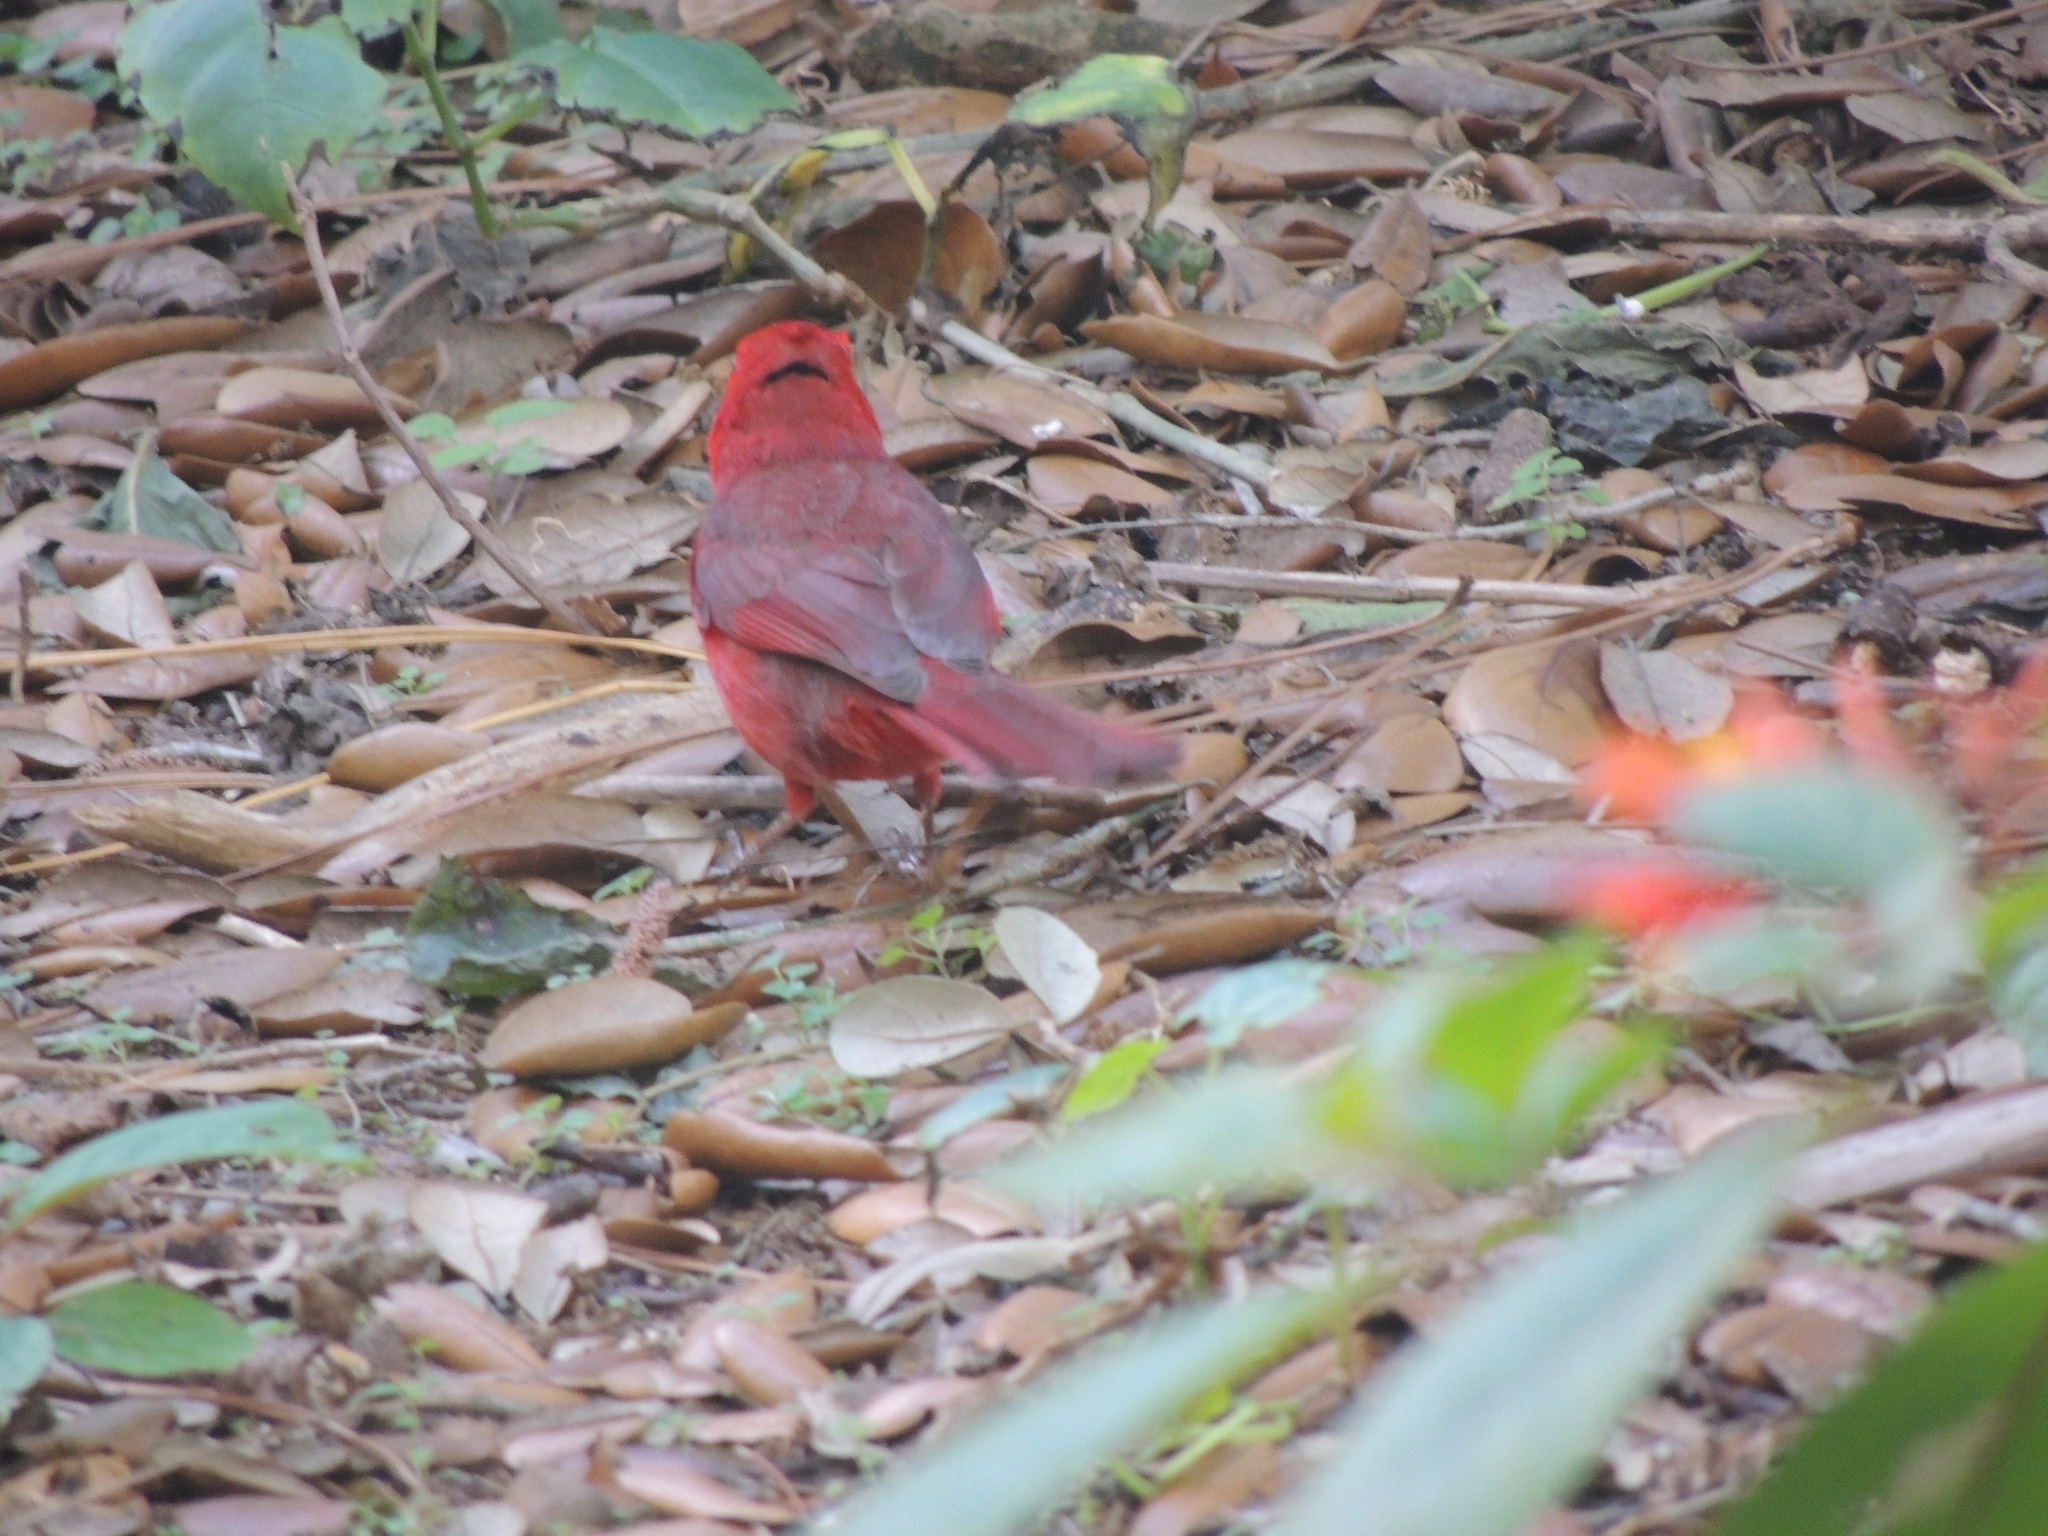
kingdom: Animalia
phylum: Chordata
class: Aves
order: Passeriformes
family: Cardinalidae
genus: Cardinalis
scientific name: Cardinalis cardinalis
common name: Northern cardinal
